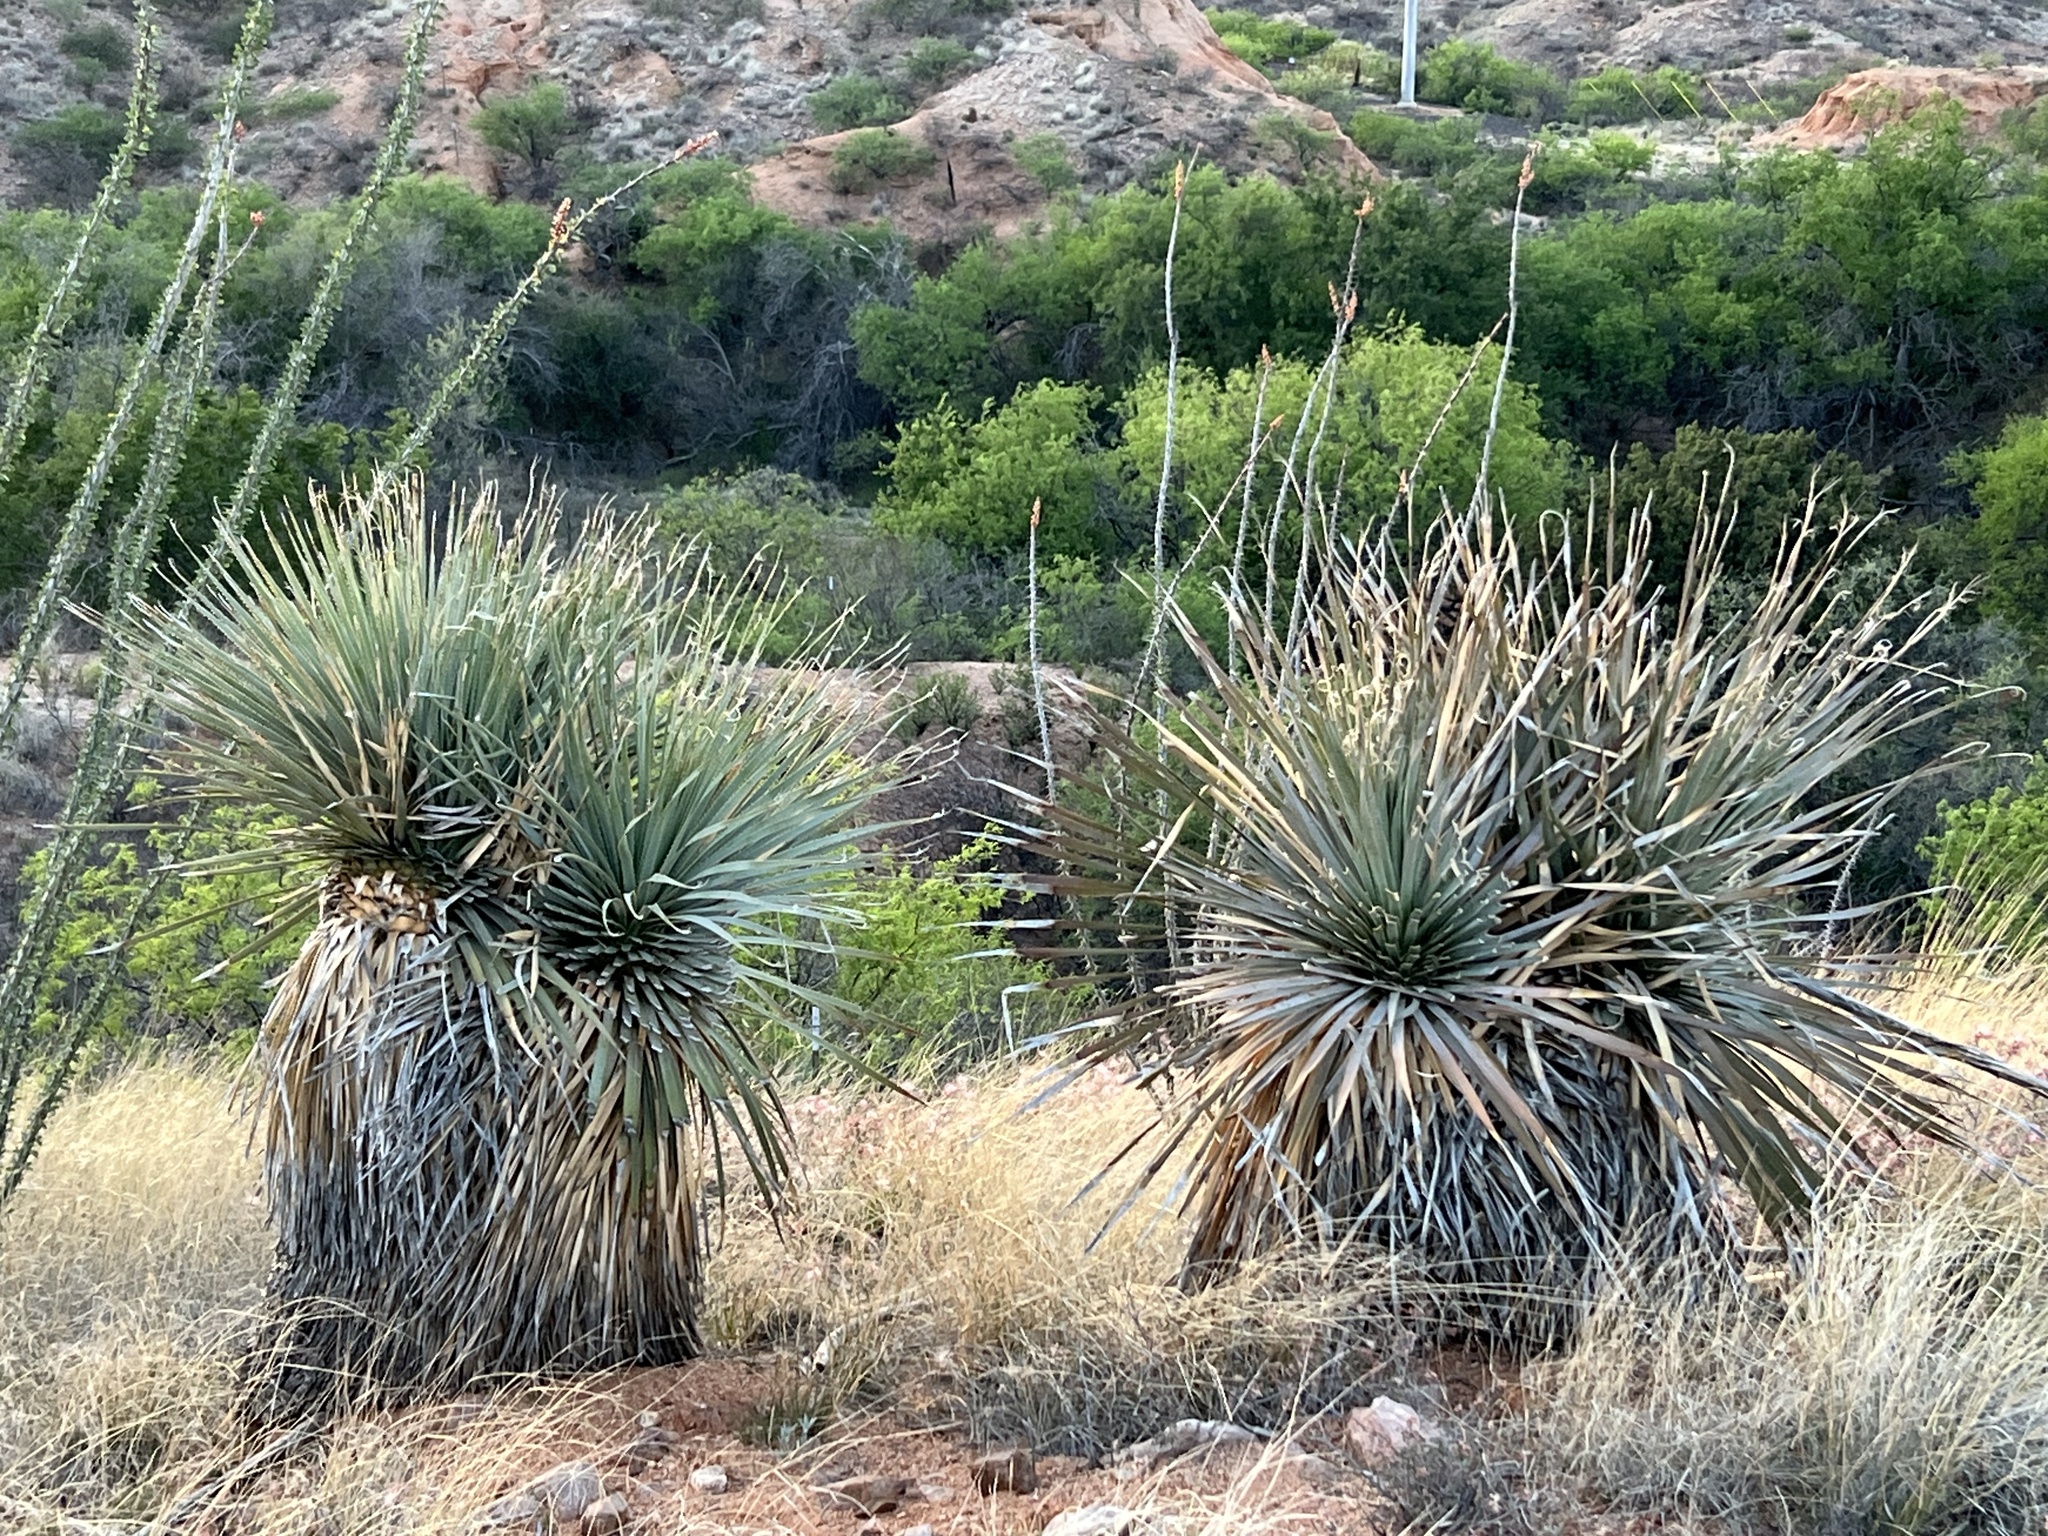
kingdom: Plantae
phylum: Tracheophyta
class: Liliopsida
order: Asparagales
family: Asparagaceae
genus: Dasylirion
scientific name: Dasylirion wheeleri
